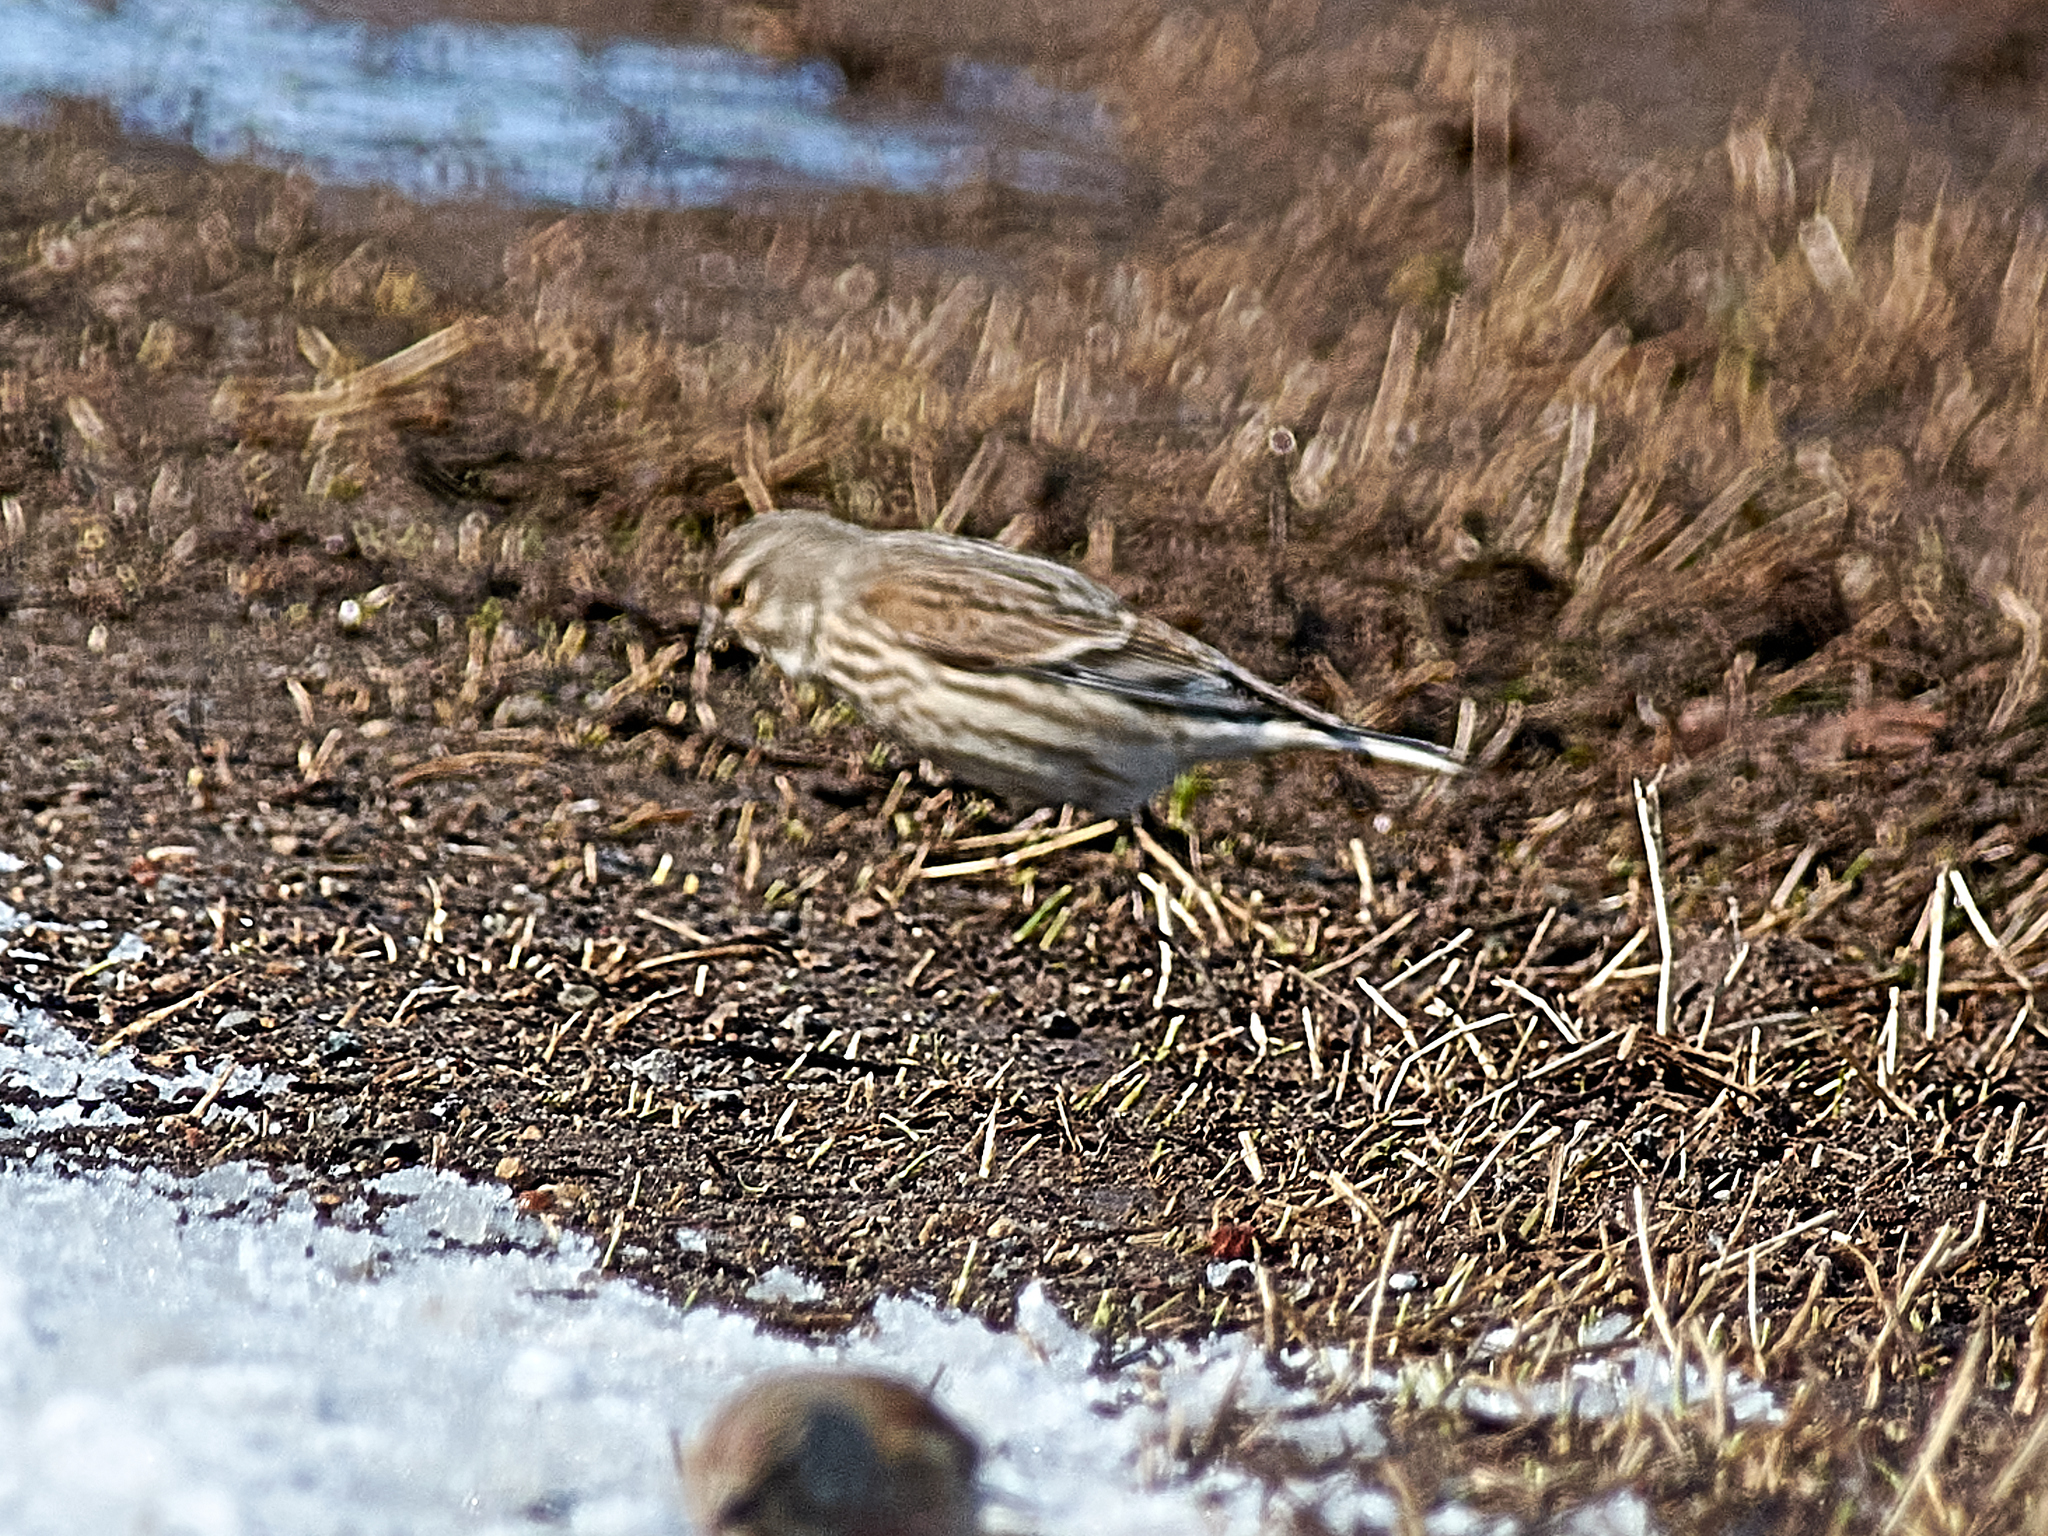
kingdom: Animalia
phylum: Chordata
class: Aves
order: Passeriformes
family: Fringillidae
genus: Linaria
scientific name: Linaria cannabina
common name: Common linnet
